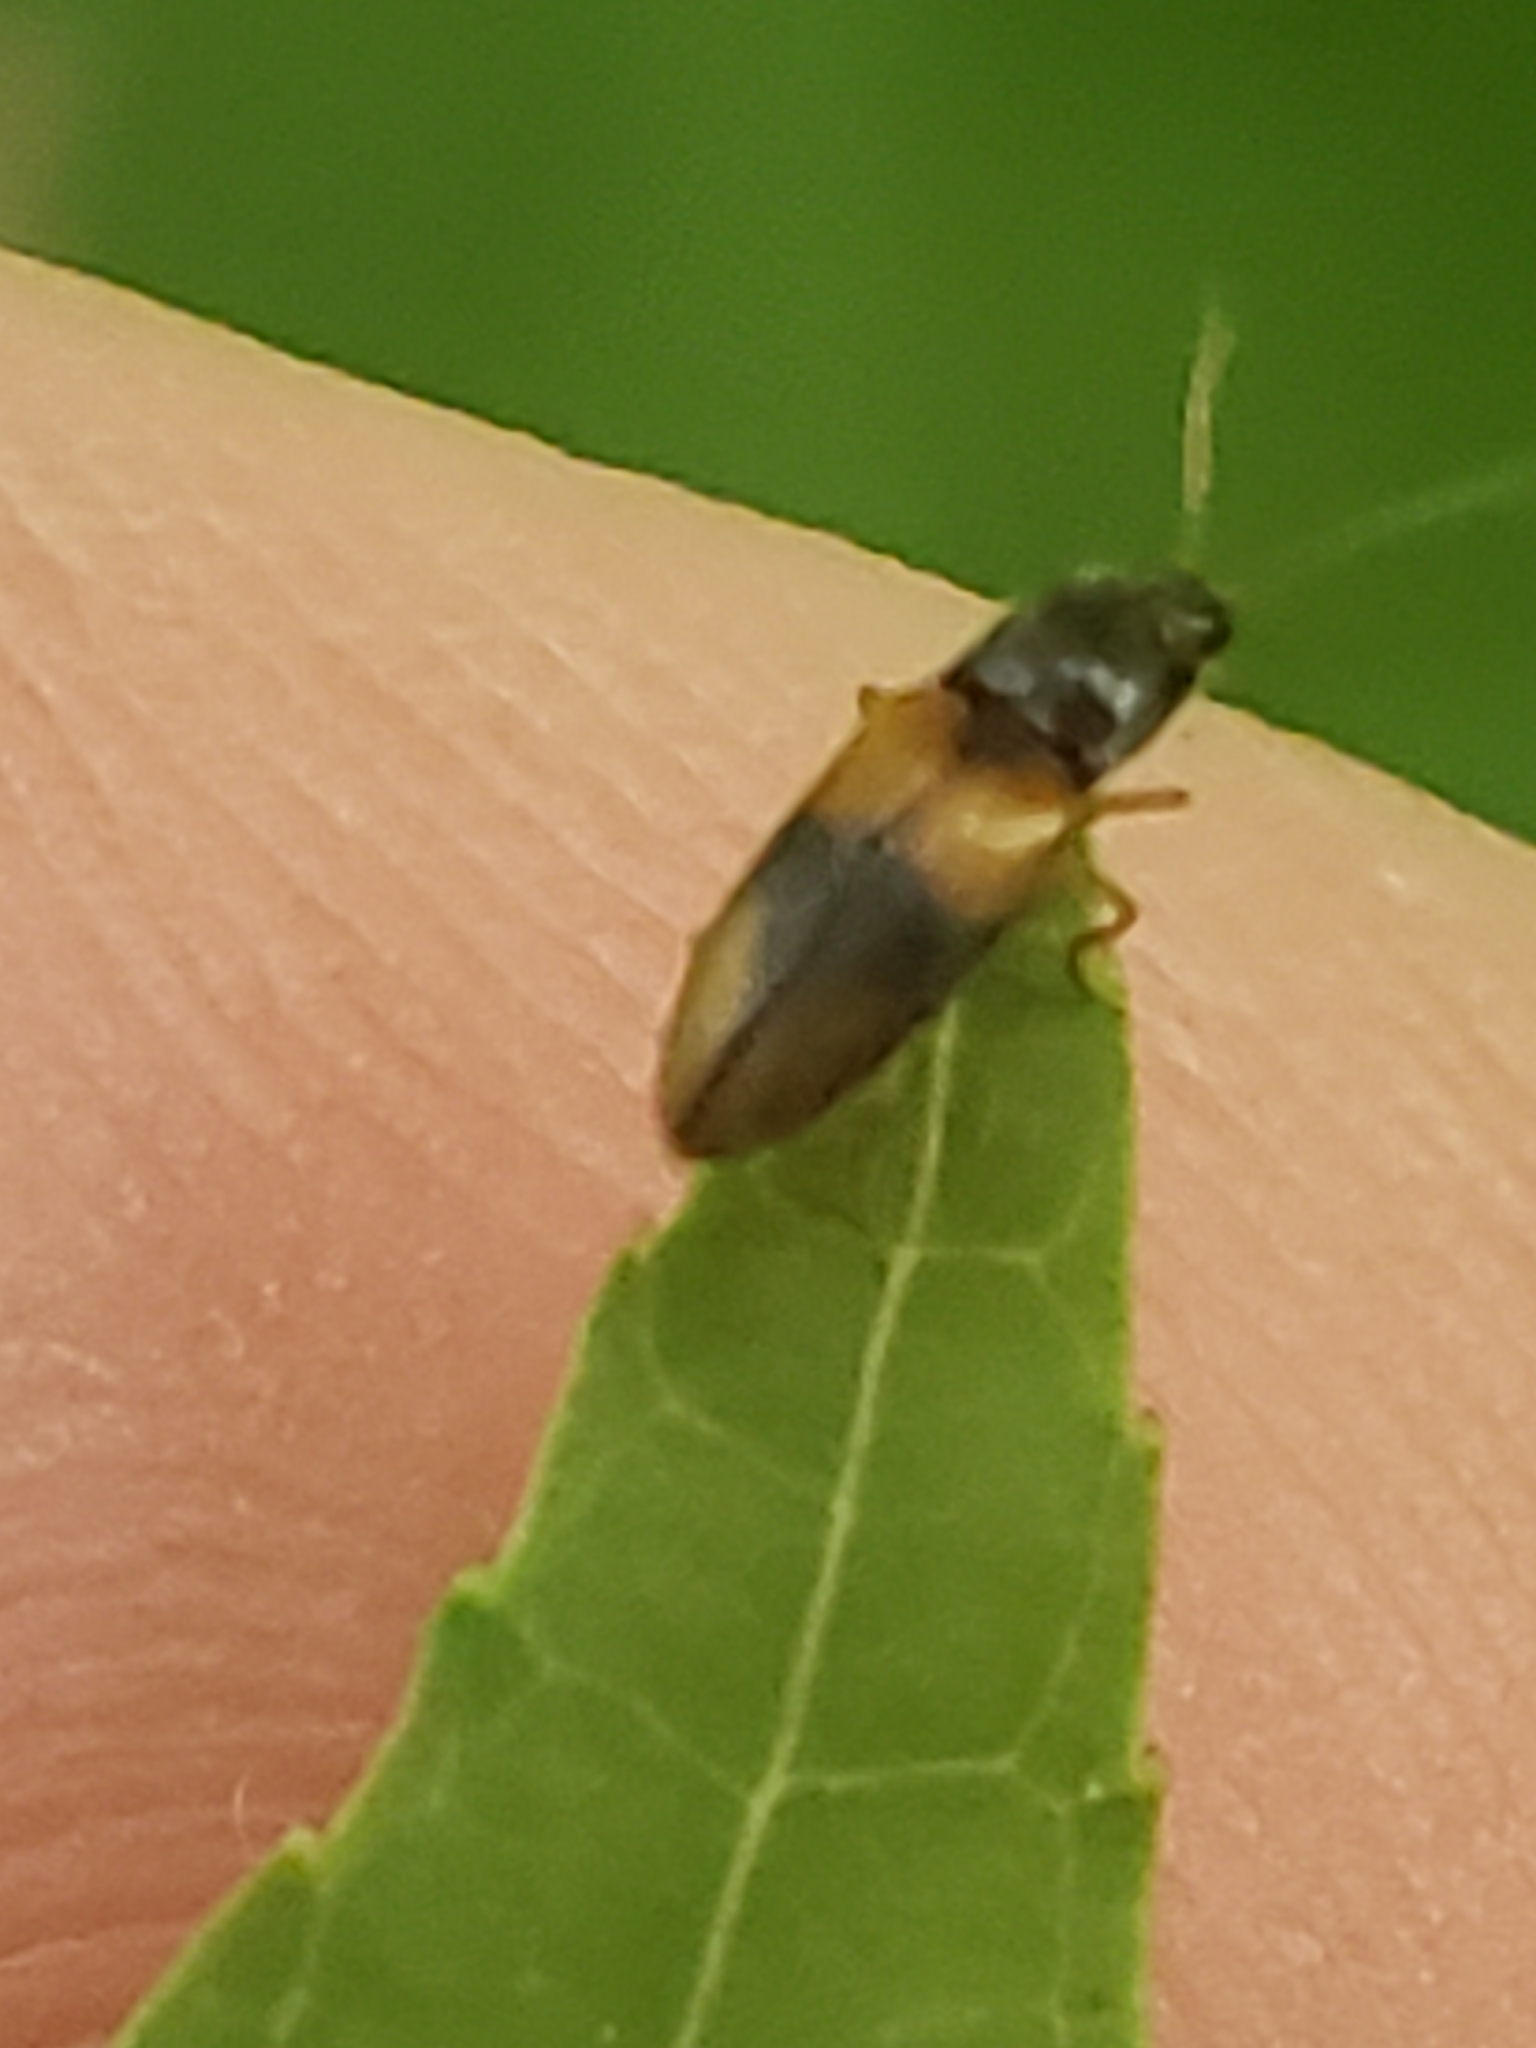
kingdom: Animalia
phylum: Arthropoda
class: Insecta
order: Coleoptera
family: Elateridae
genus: Horistonotus
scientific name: Horistonotus curiatus
